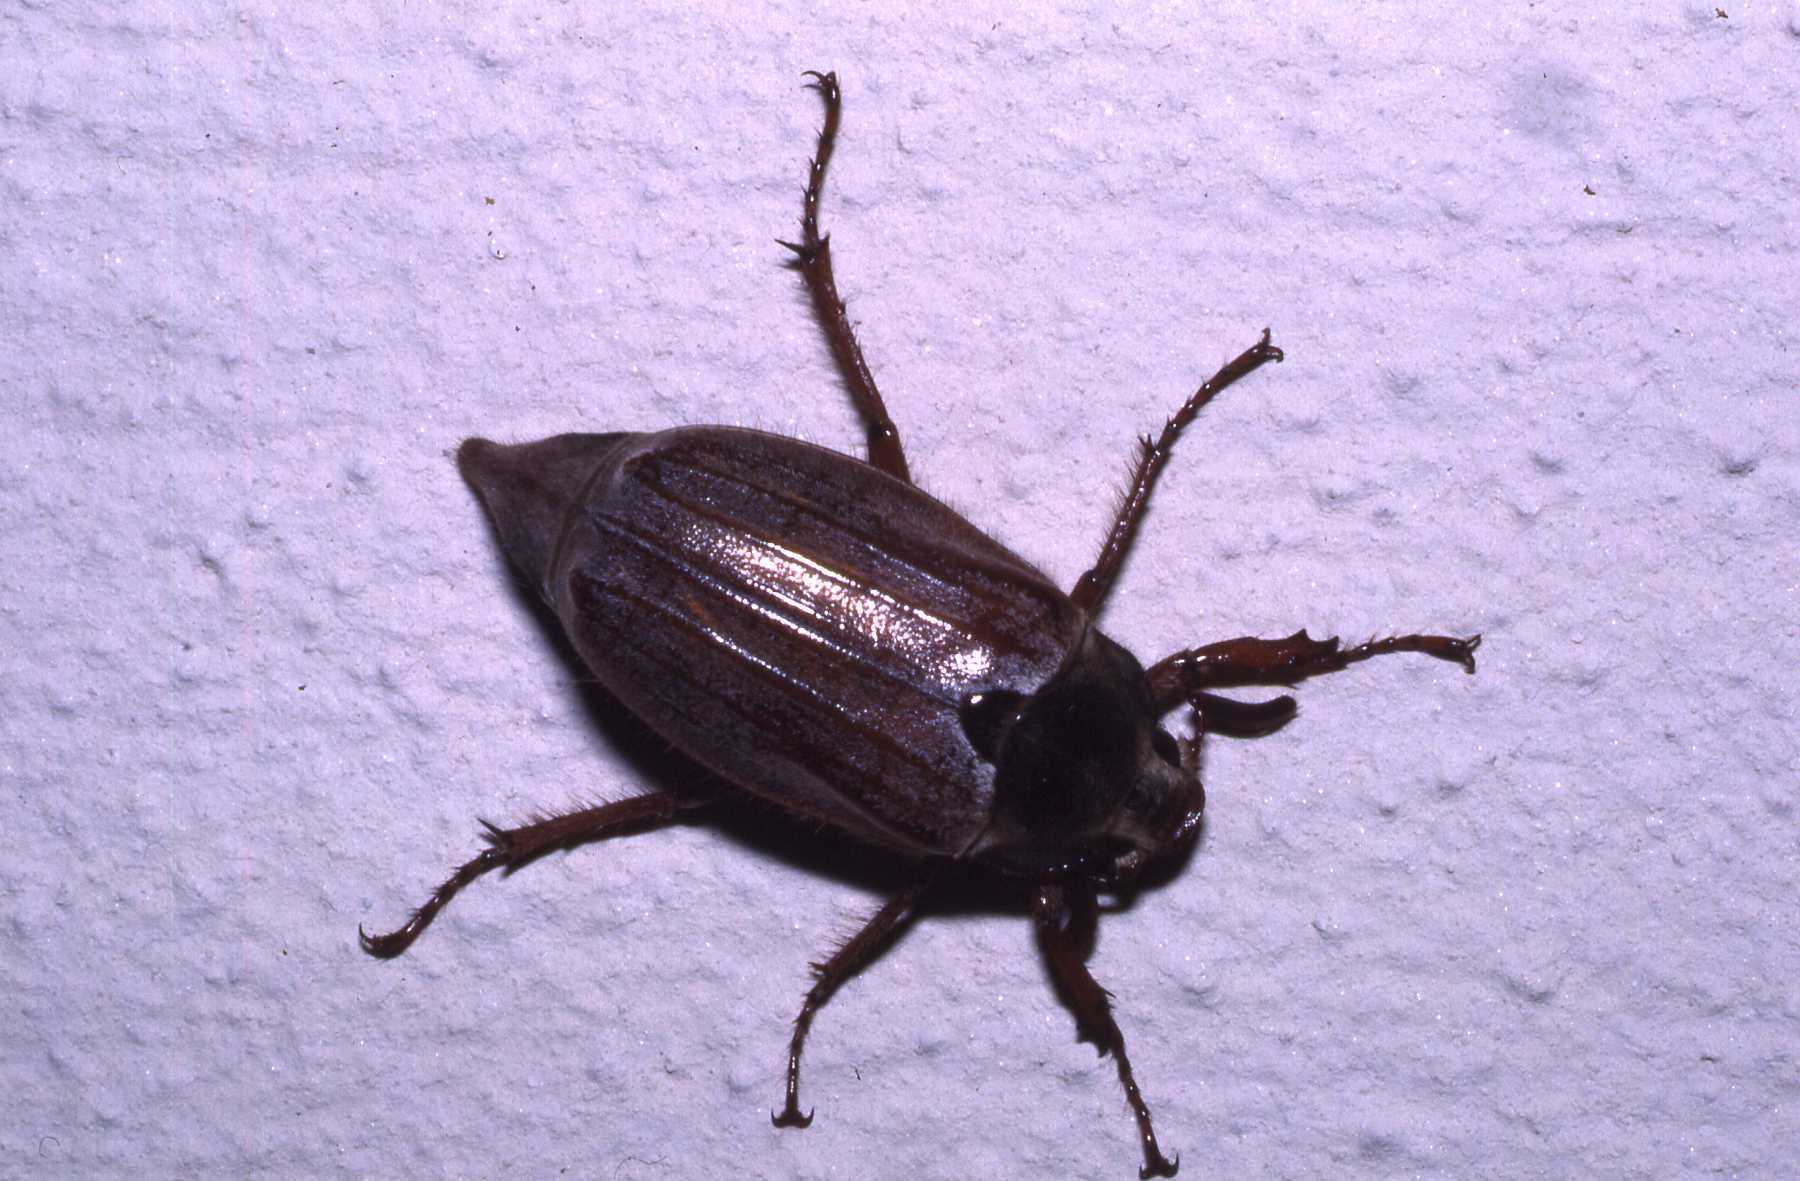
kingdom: Animalia
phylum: Arthropoda
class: Insecta
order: Coleoptera
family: Scarabaeidae
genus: Melolontha
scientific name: Melolontha melolontha
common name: Cockchafer maybeetle
